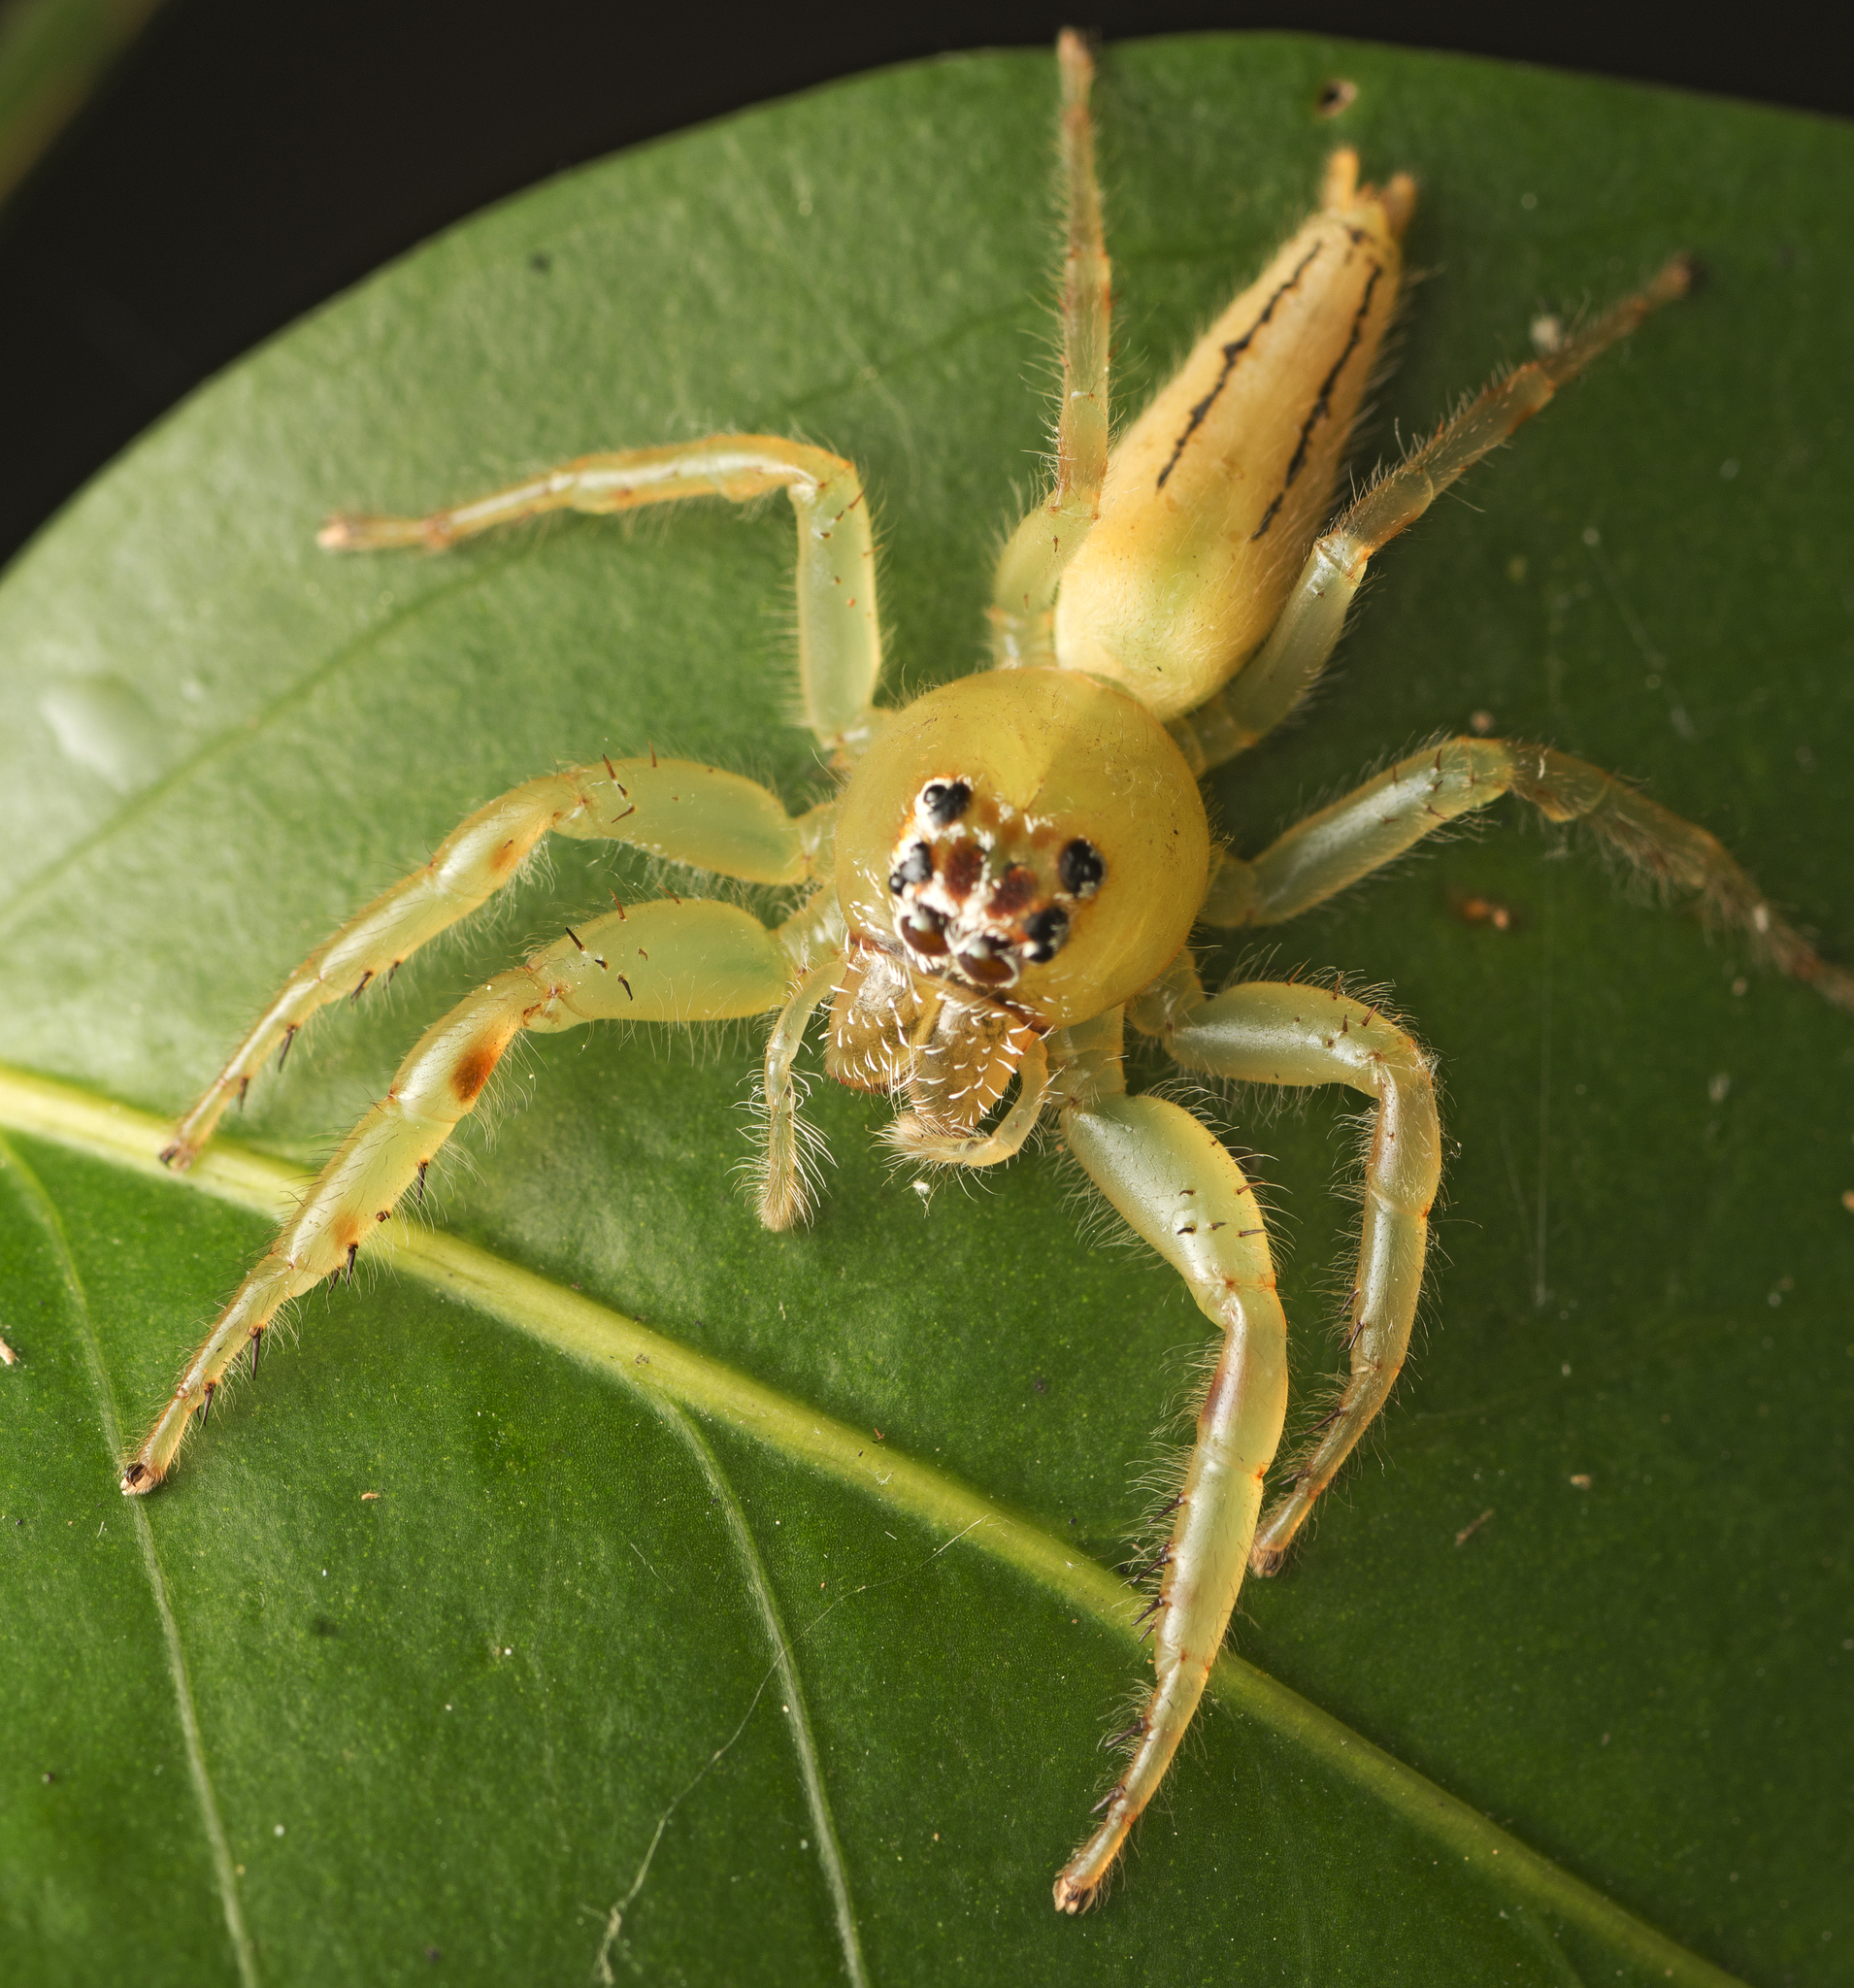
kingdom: Animalia
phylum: Arthropoda
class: Arachnida
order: Araneae
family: Salticidae
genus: Mopsus
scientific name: Mopsus mormon
